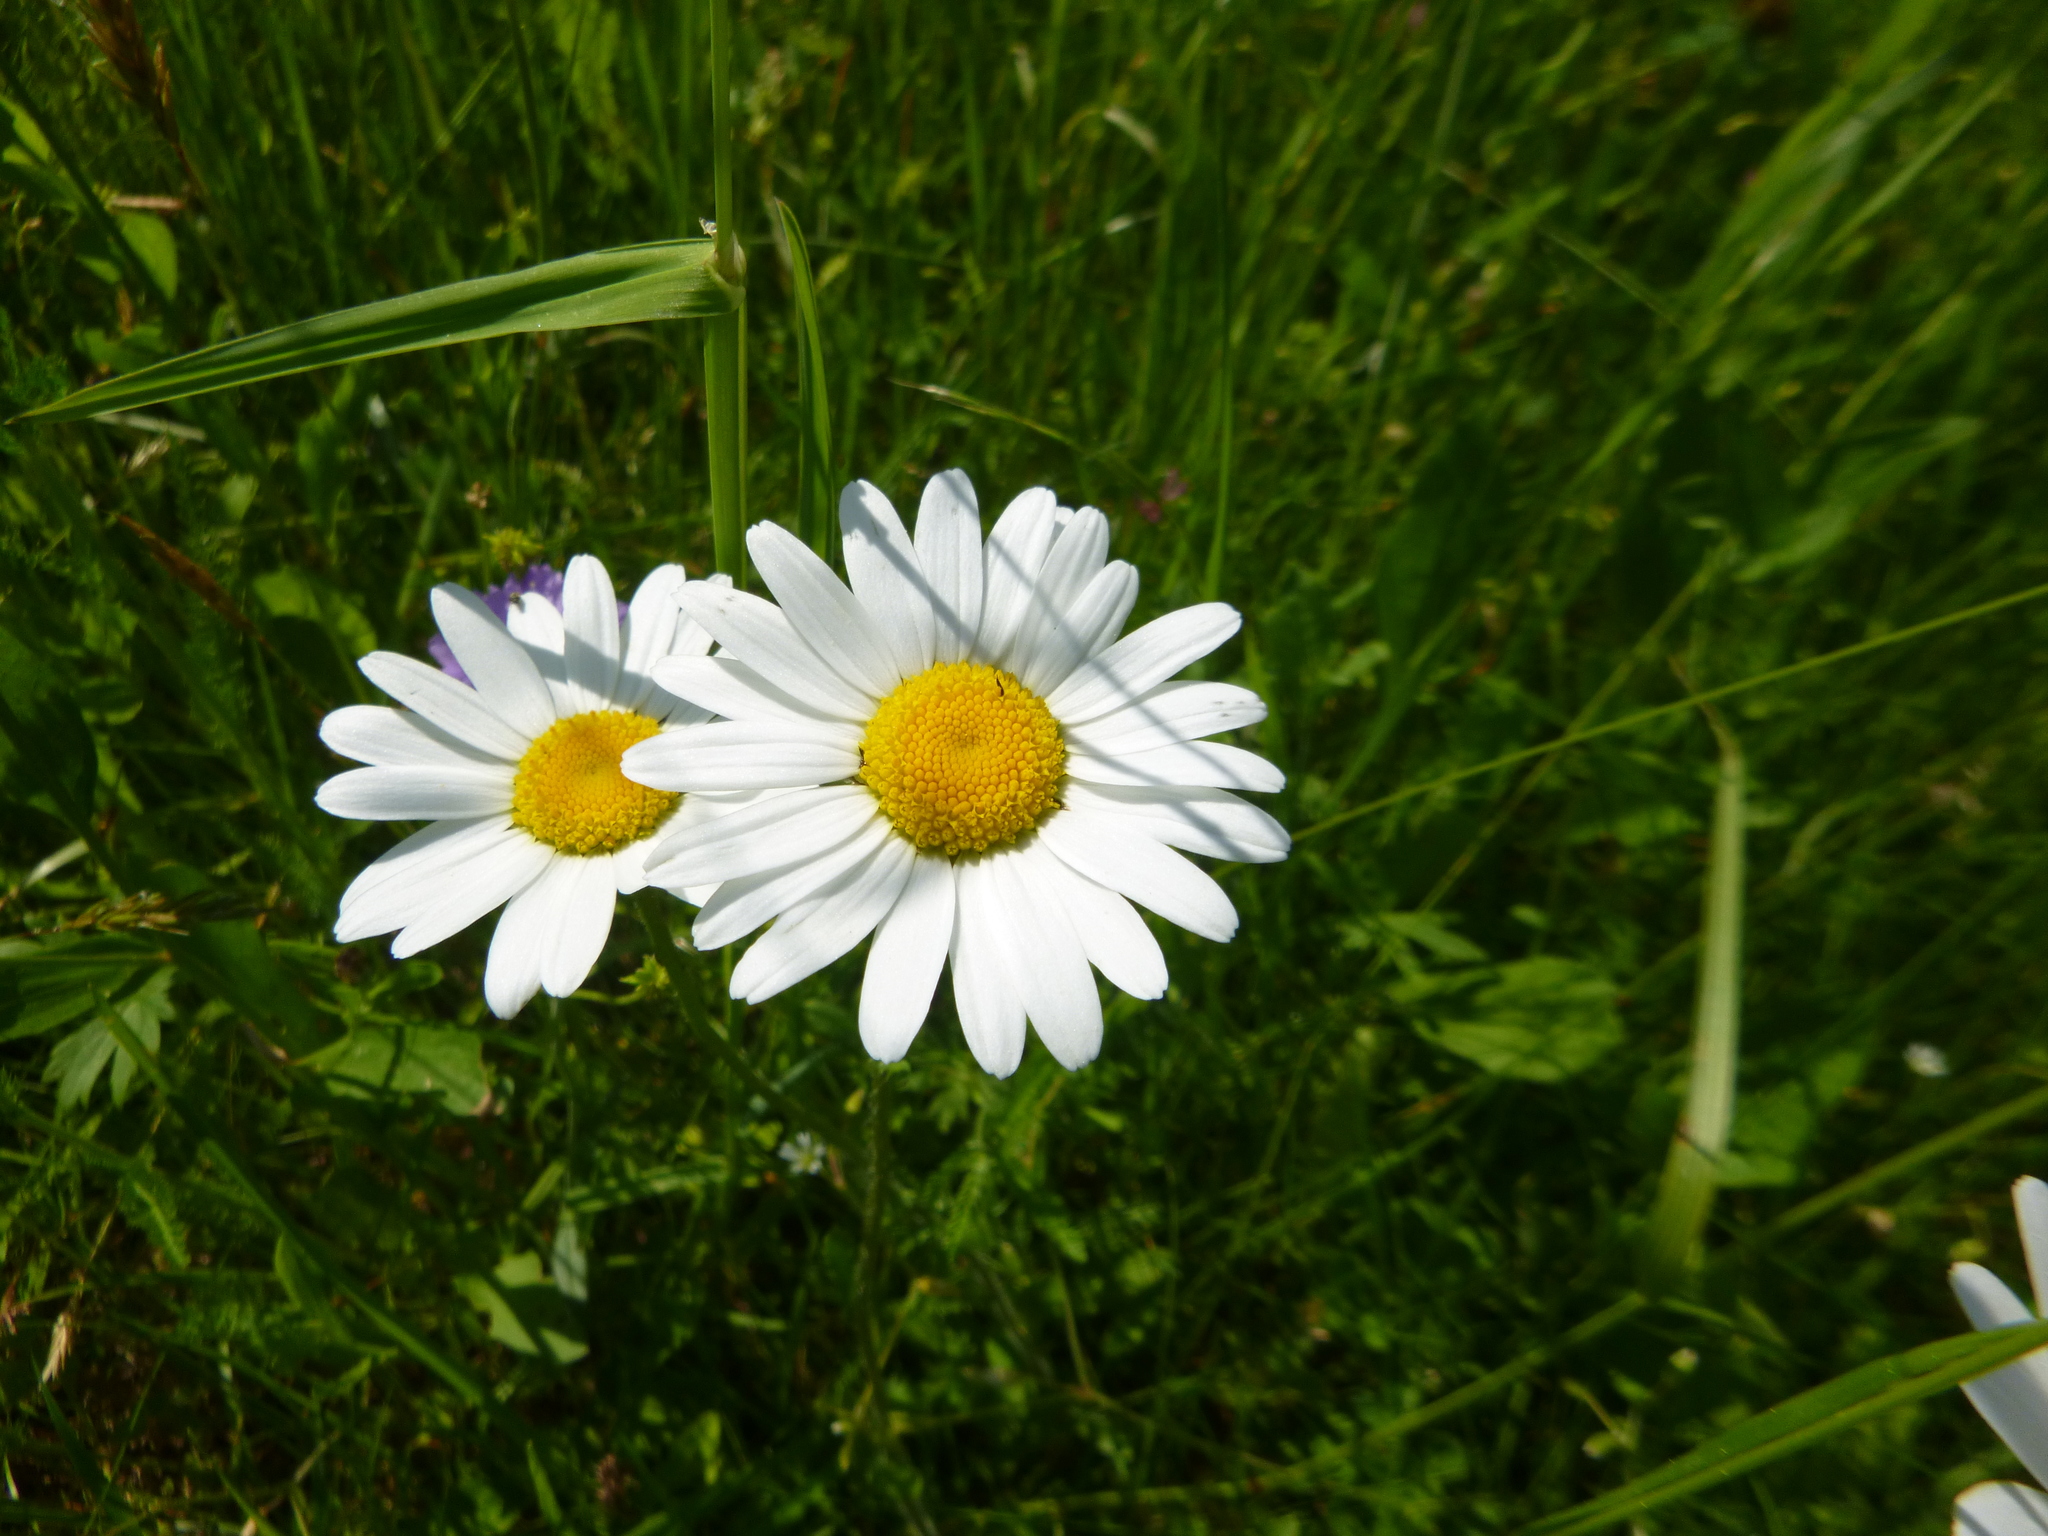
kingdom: Plantae
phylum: Tracheophyta
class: Magnoliopsida
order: Asterales
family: Asteraceae
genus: Leucanthemum
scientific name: Leucanthemum ircutianum
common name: Daisy
